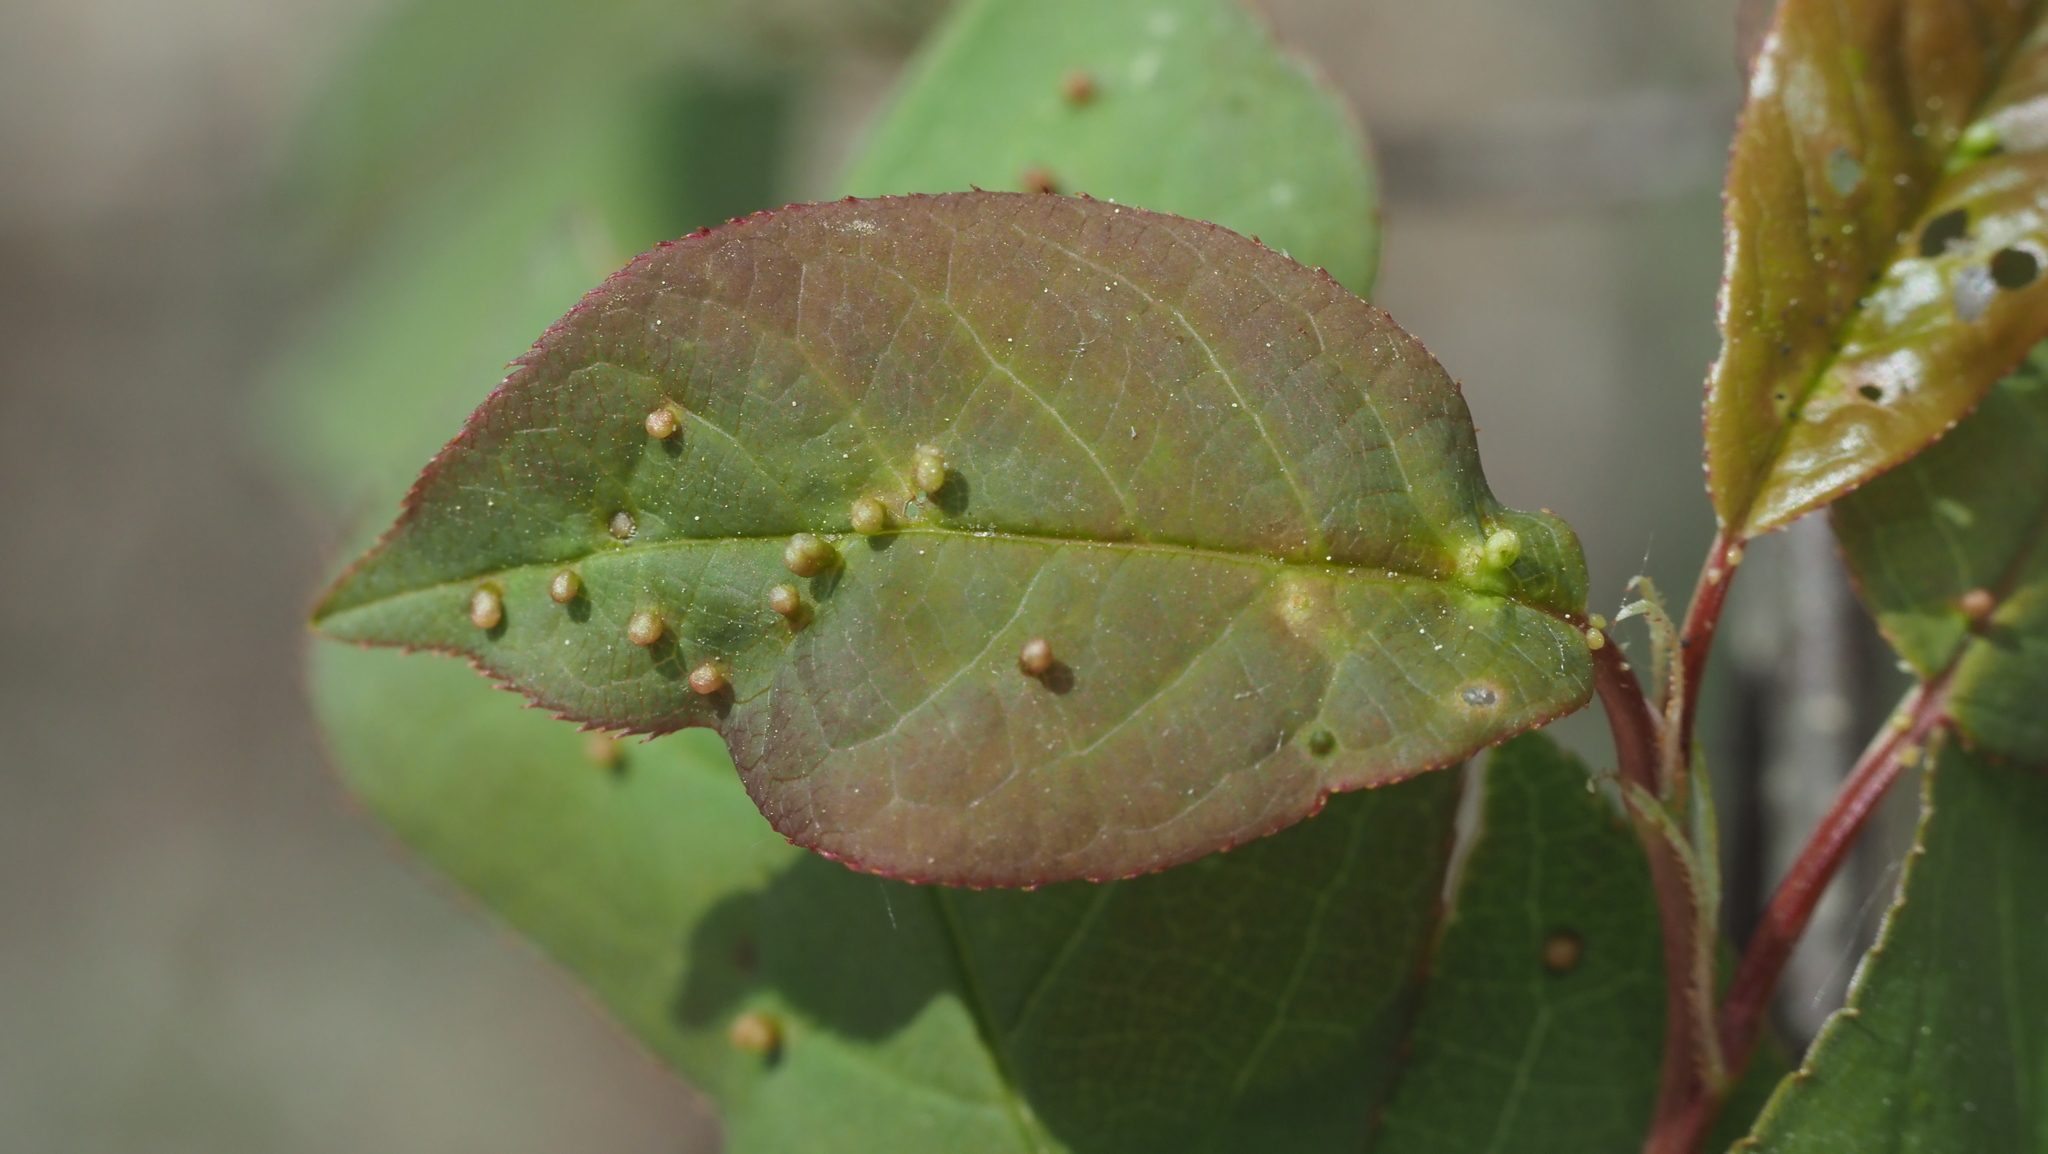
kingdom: Animalia
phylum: Arthropoda
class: Arachnida
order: Trombidiformes
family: Eriophyidae
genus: Eriophyes
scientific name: Eriophyes emarginatae
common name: Plum leaf gall mite
